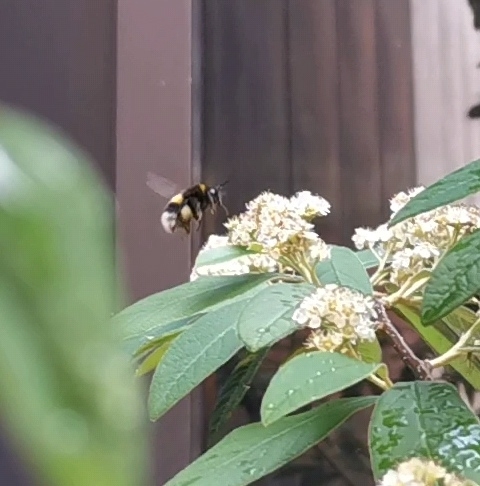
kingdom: Animalia
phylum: Arthropoda
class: Insecta
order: Hymenoptera
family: Apidae
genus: Bombus
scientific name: Bombus terrestris
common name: Buff-tailed bumblebee
